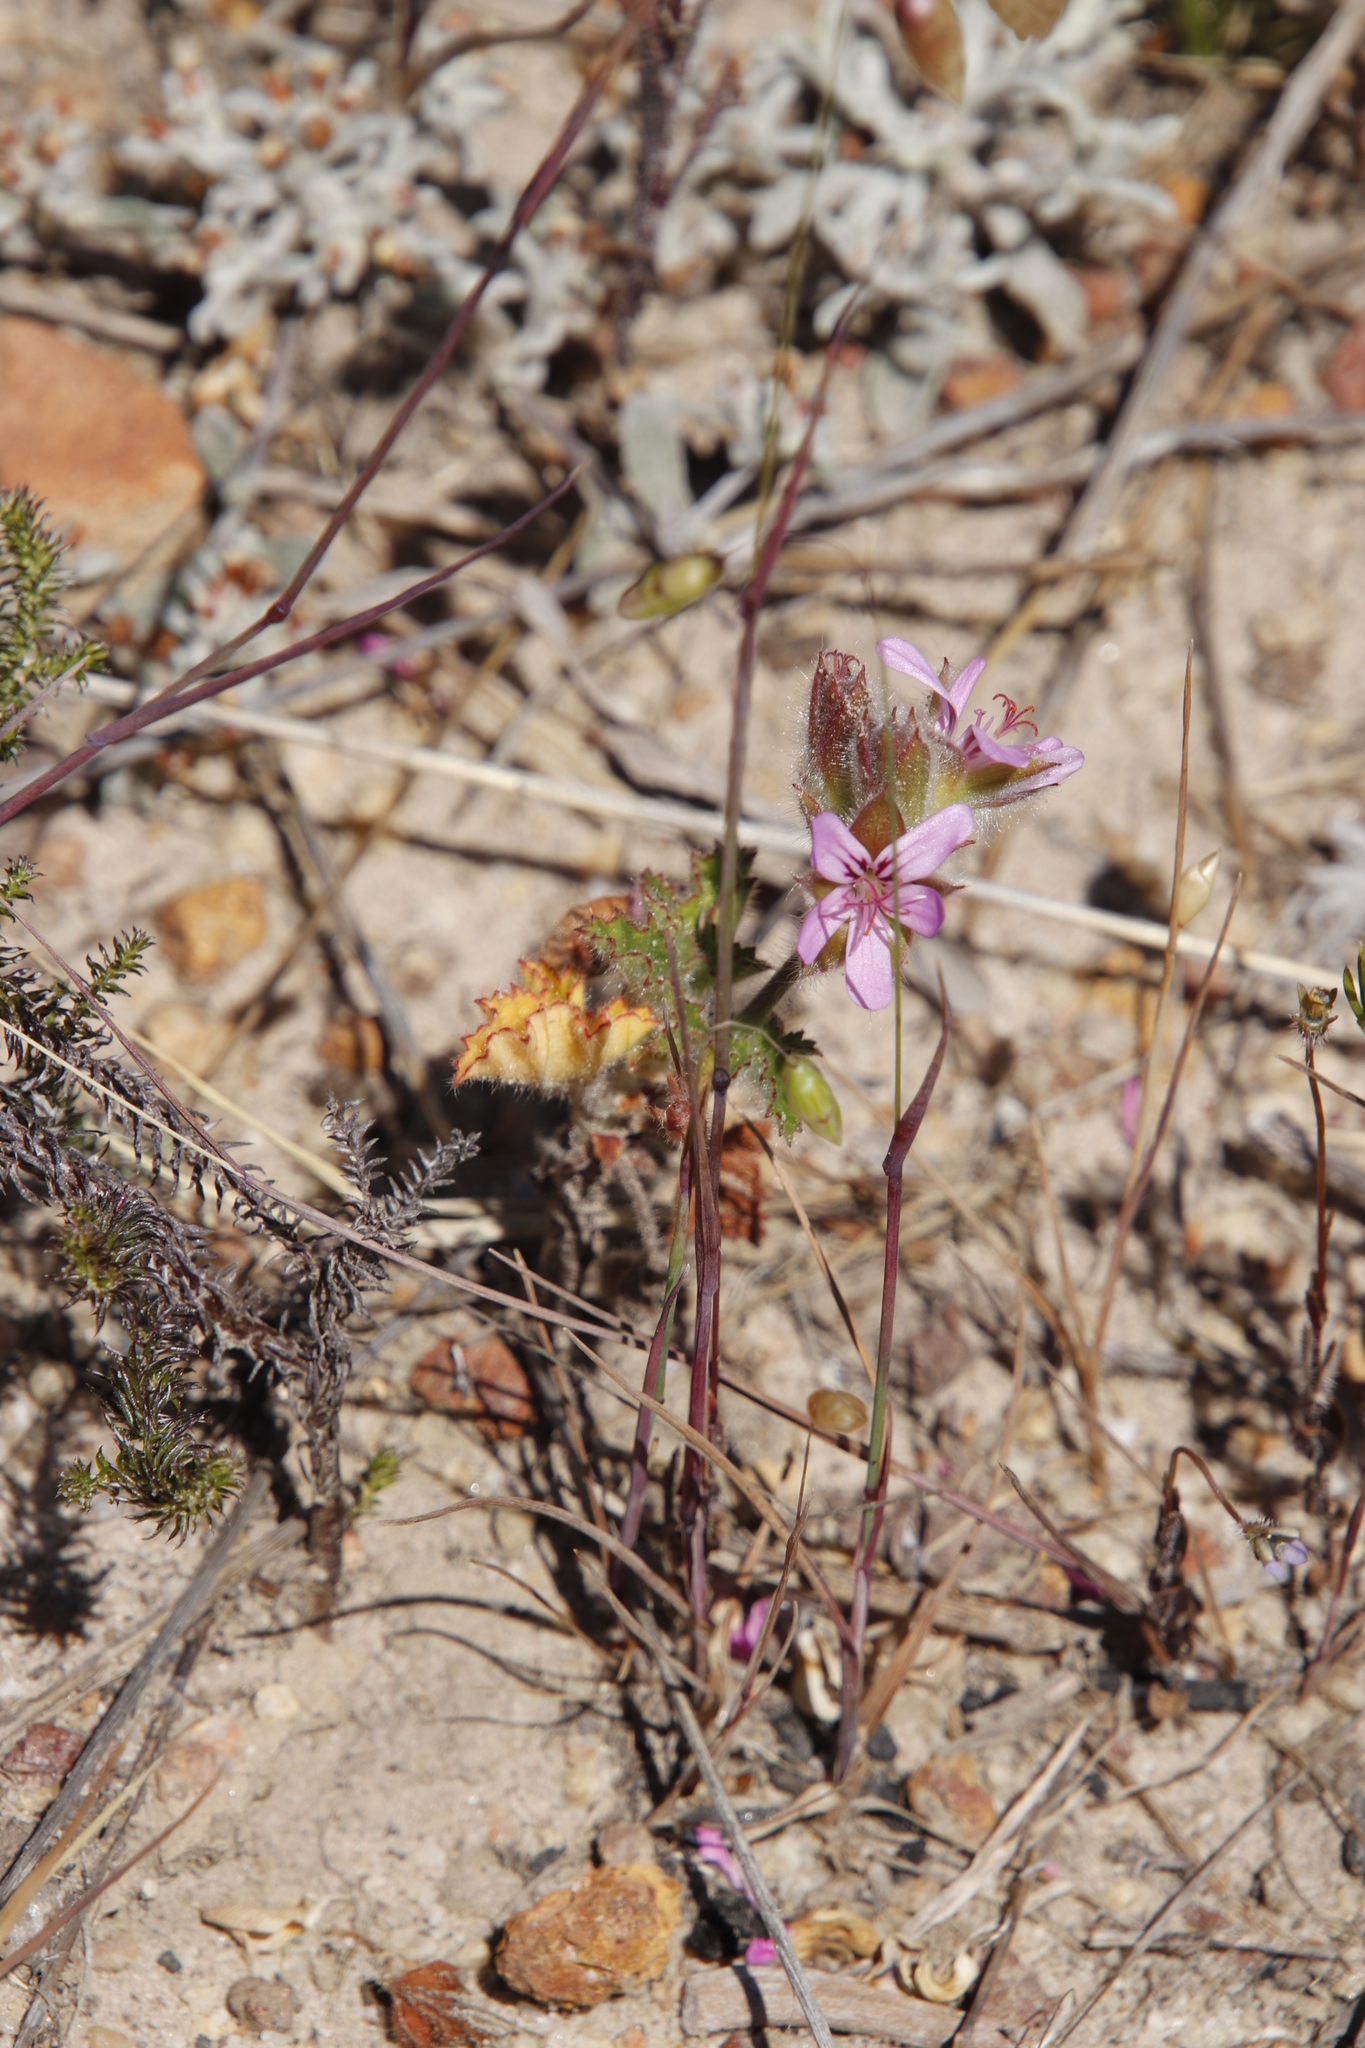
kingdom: Plantae
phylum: Tracheophyta
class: Magnoliopsida
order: Geraniales
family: Geraniaceae
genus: Pelargonium
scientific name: Pelargonium capitatum
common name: Rose scented geranium
